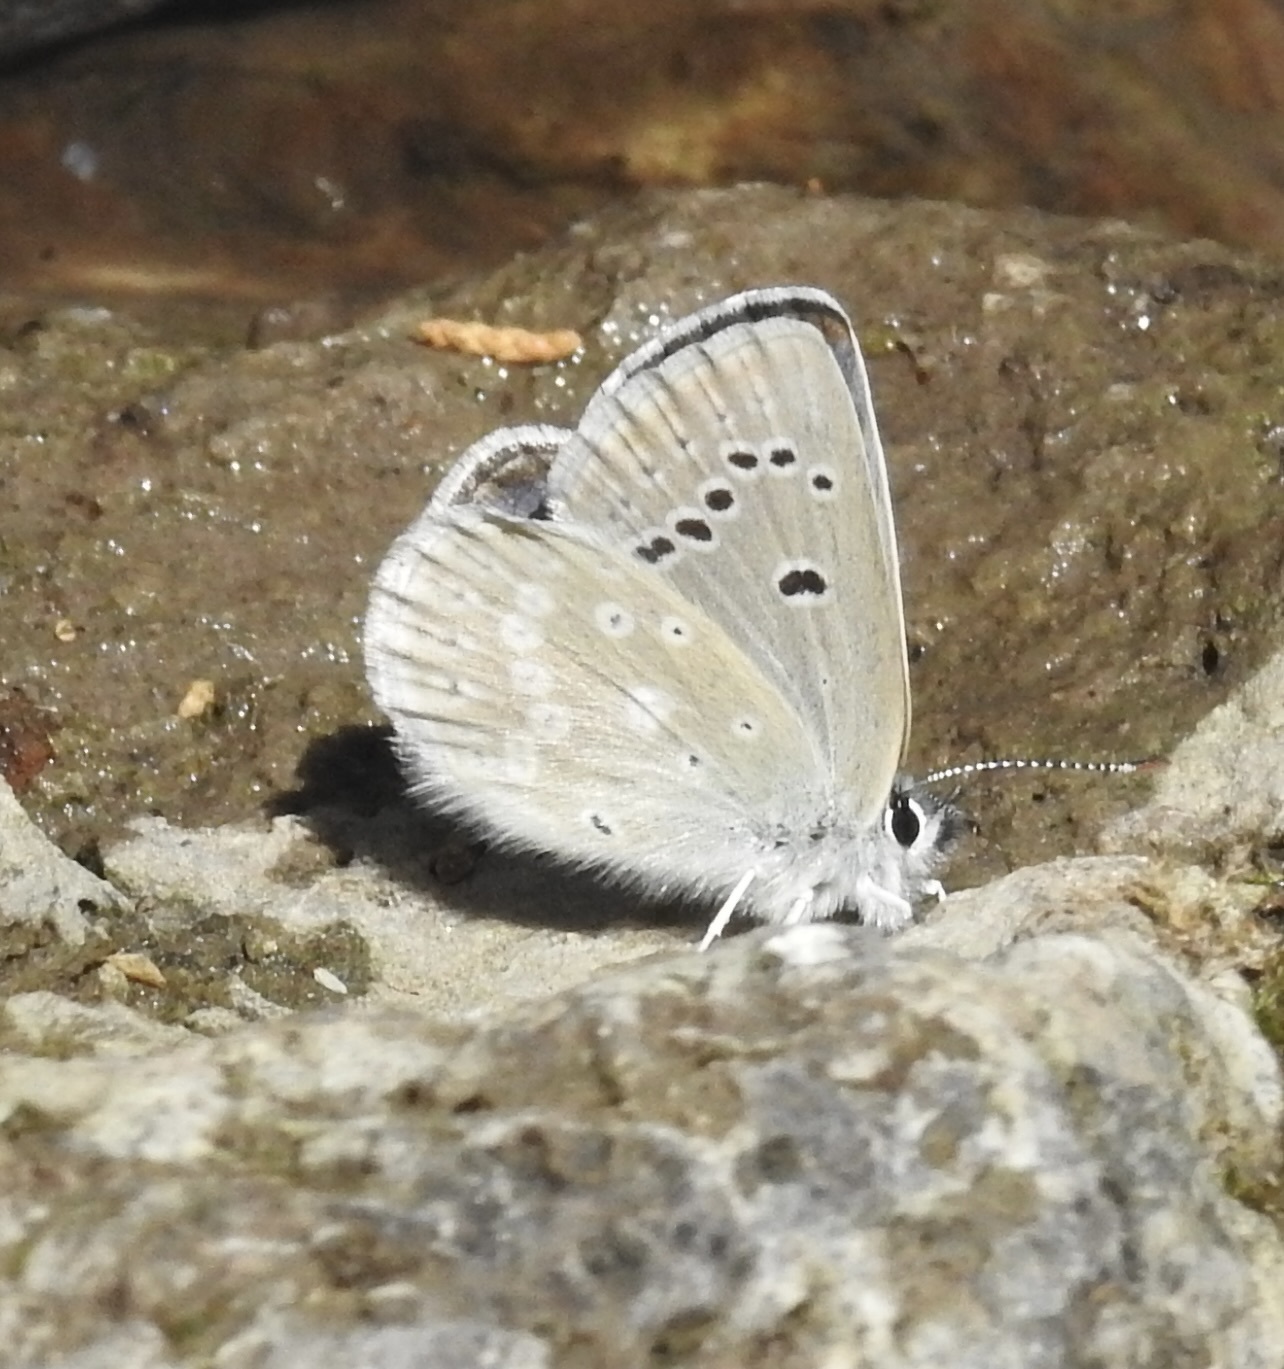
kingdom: Animalia
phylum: Arthropoda
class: Insecta
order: Lepidoptera
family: Lycaenidae
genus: Icaricia
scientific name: Icaricia icarioides
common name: Boisduval's blue
